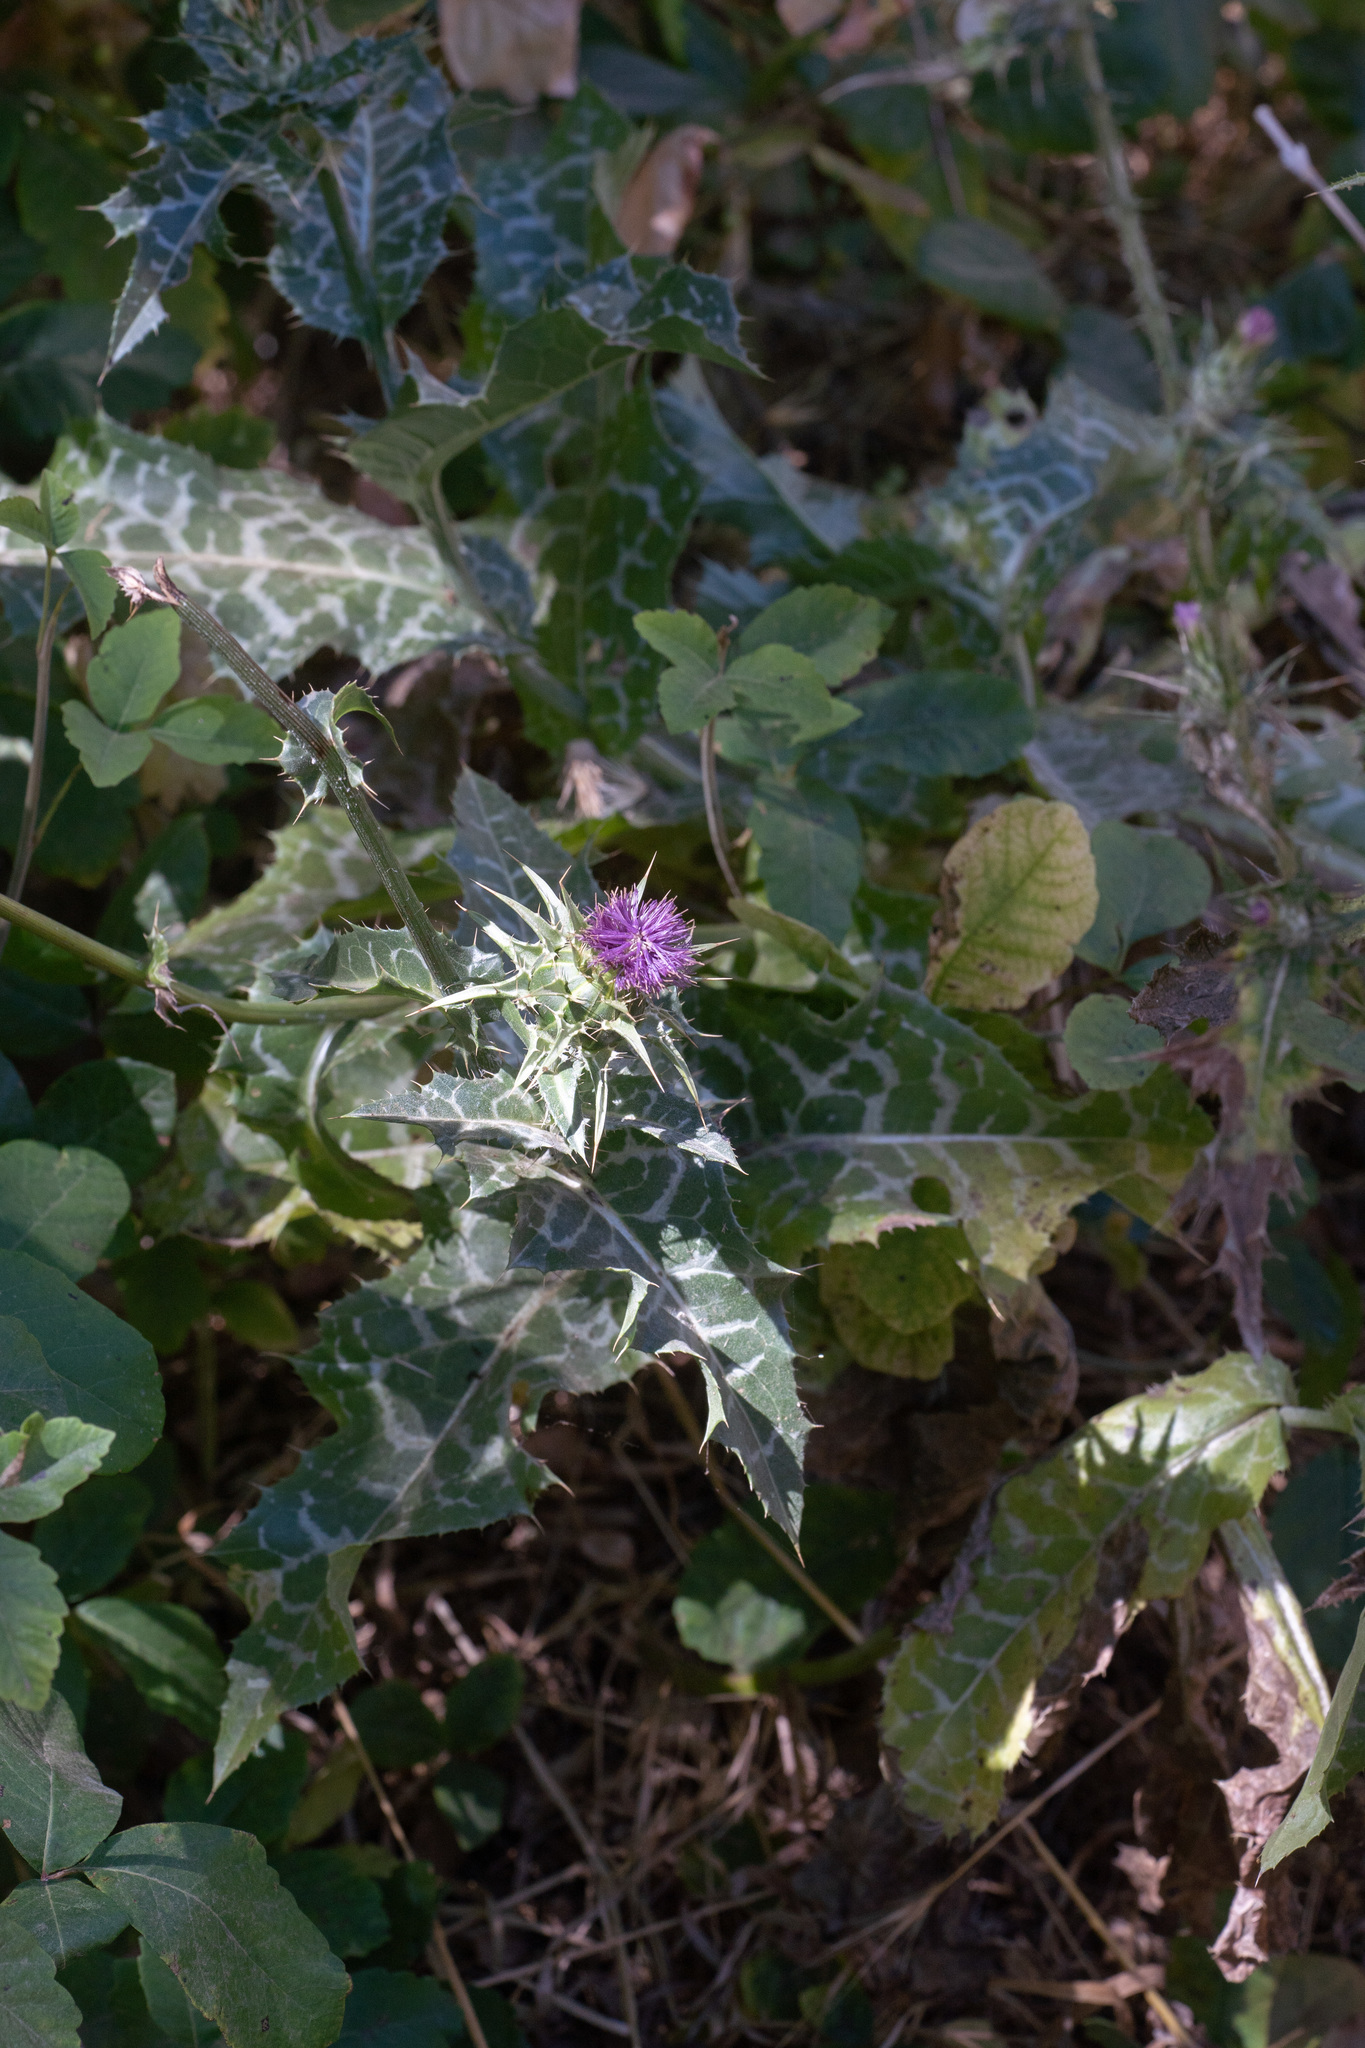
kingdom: Plantae
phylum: Tracheophyta
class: Magnoliopsida
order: Asterales
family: Asteraceae
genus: Silybum
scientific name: Silybum marianum
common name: Milk thistle
